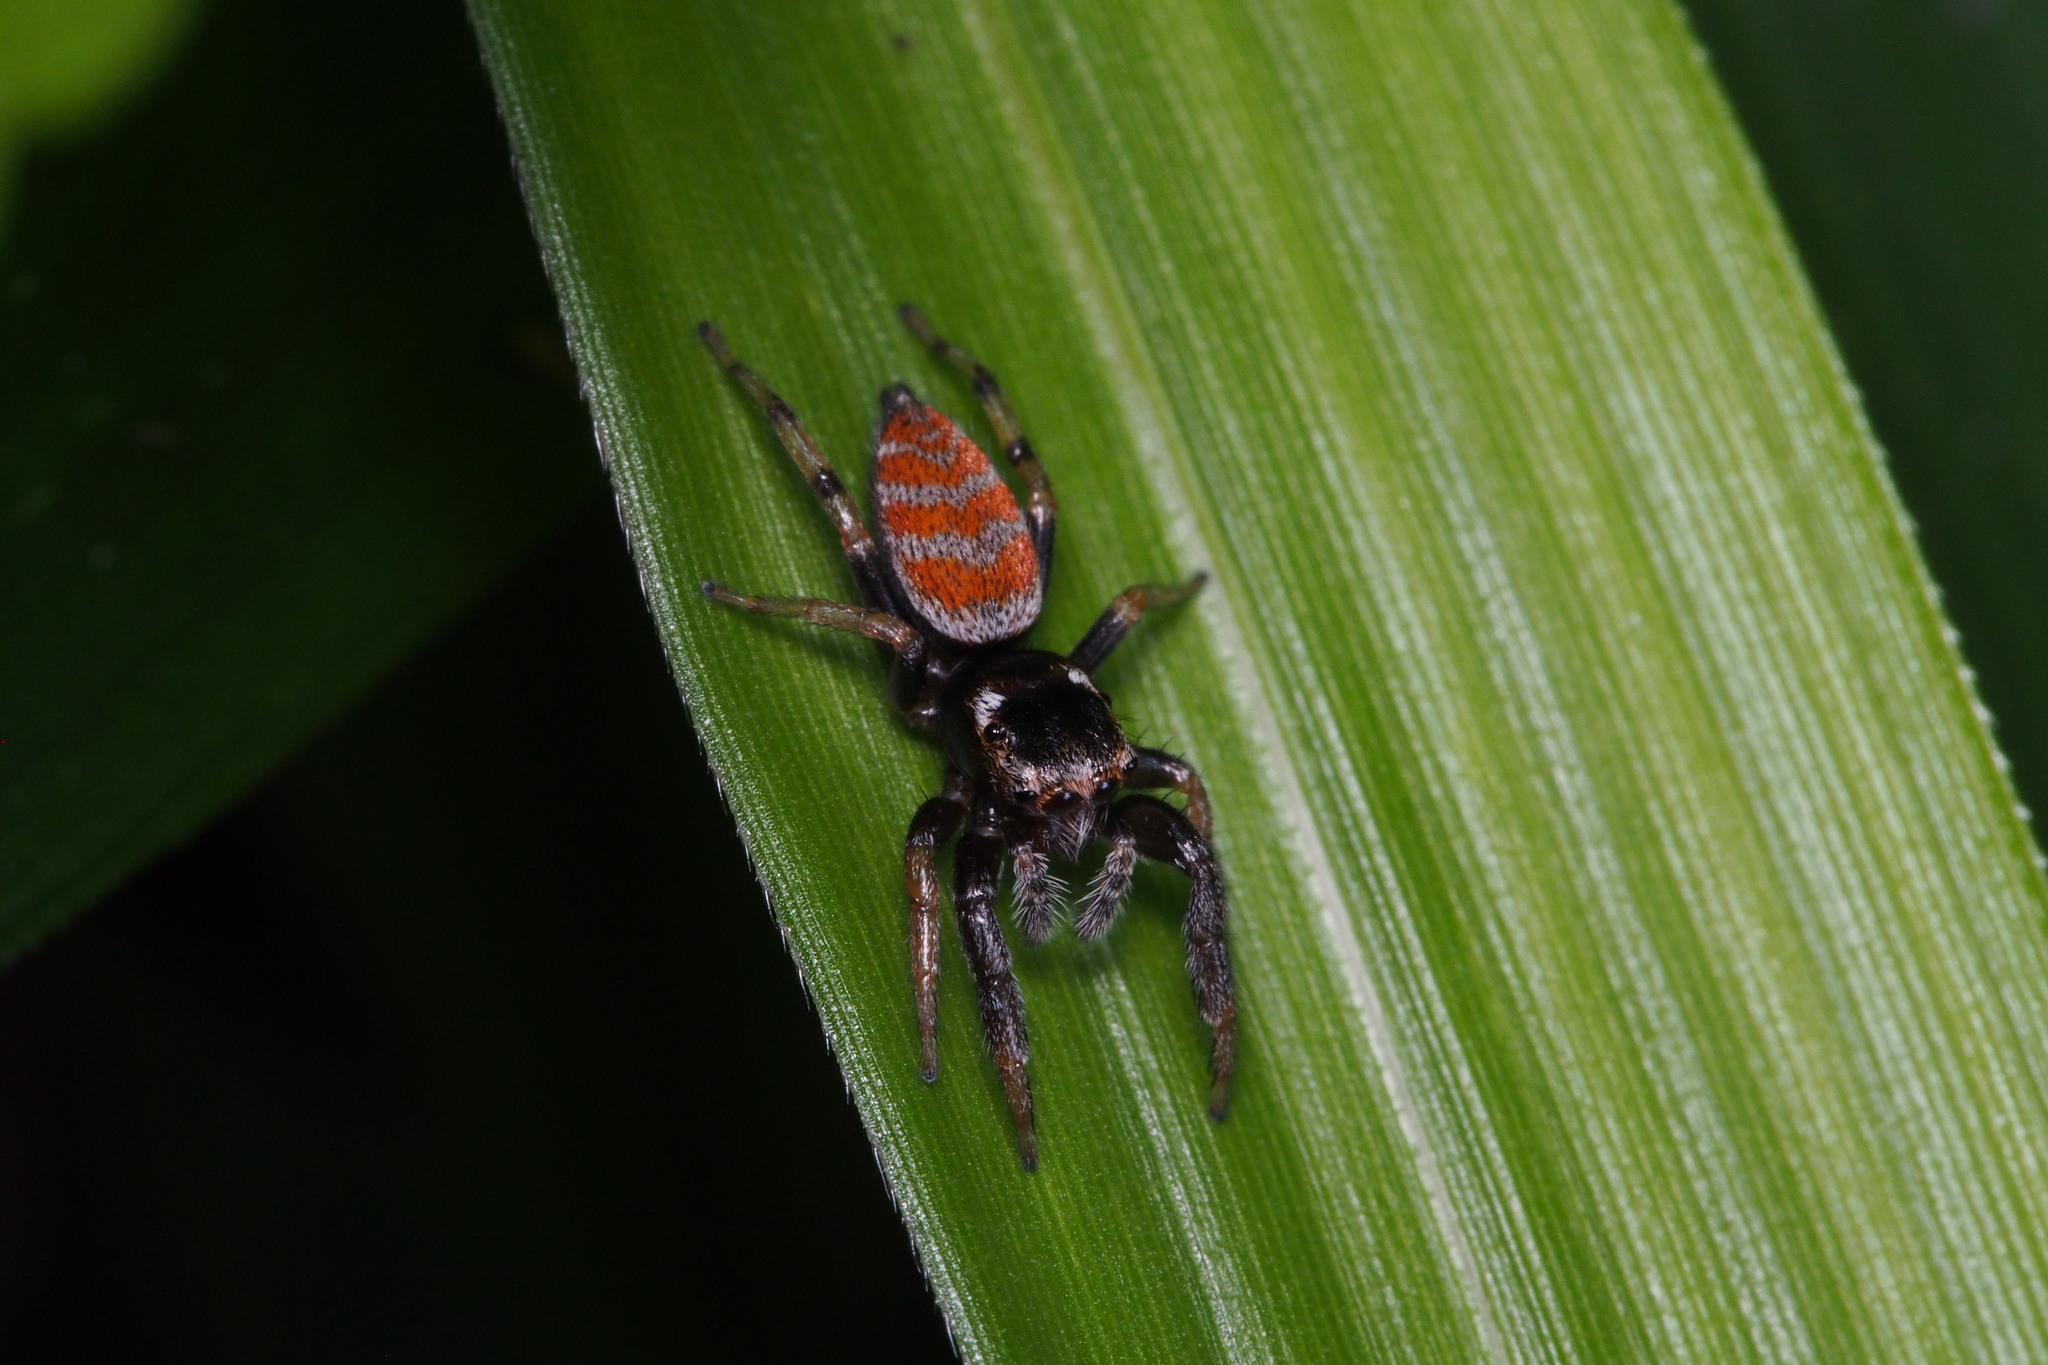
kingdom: Animalia
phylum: Arthropoda
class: Arachnida
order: Araneae
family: Salticidae
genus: Marpissa
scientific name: Marpissa pulla
